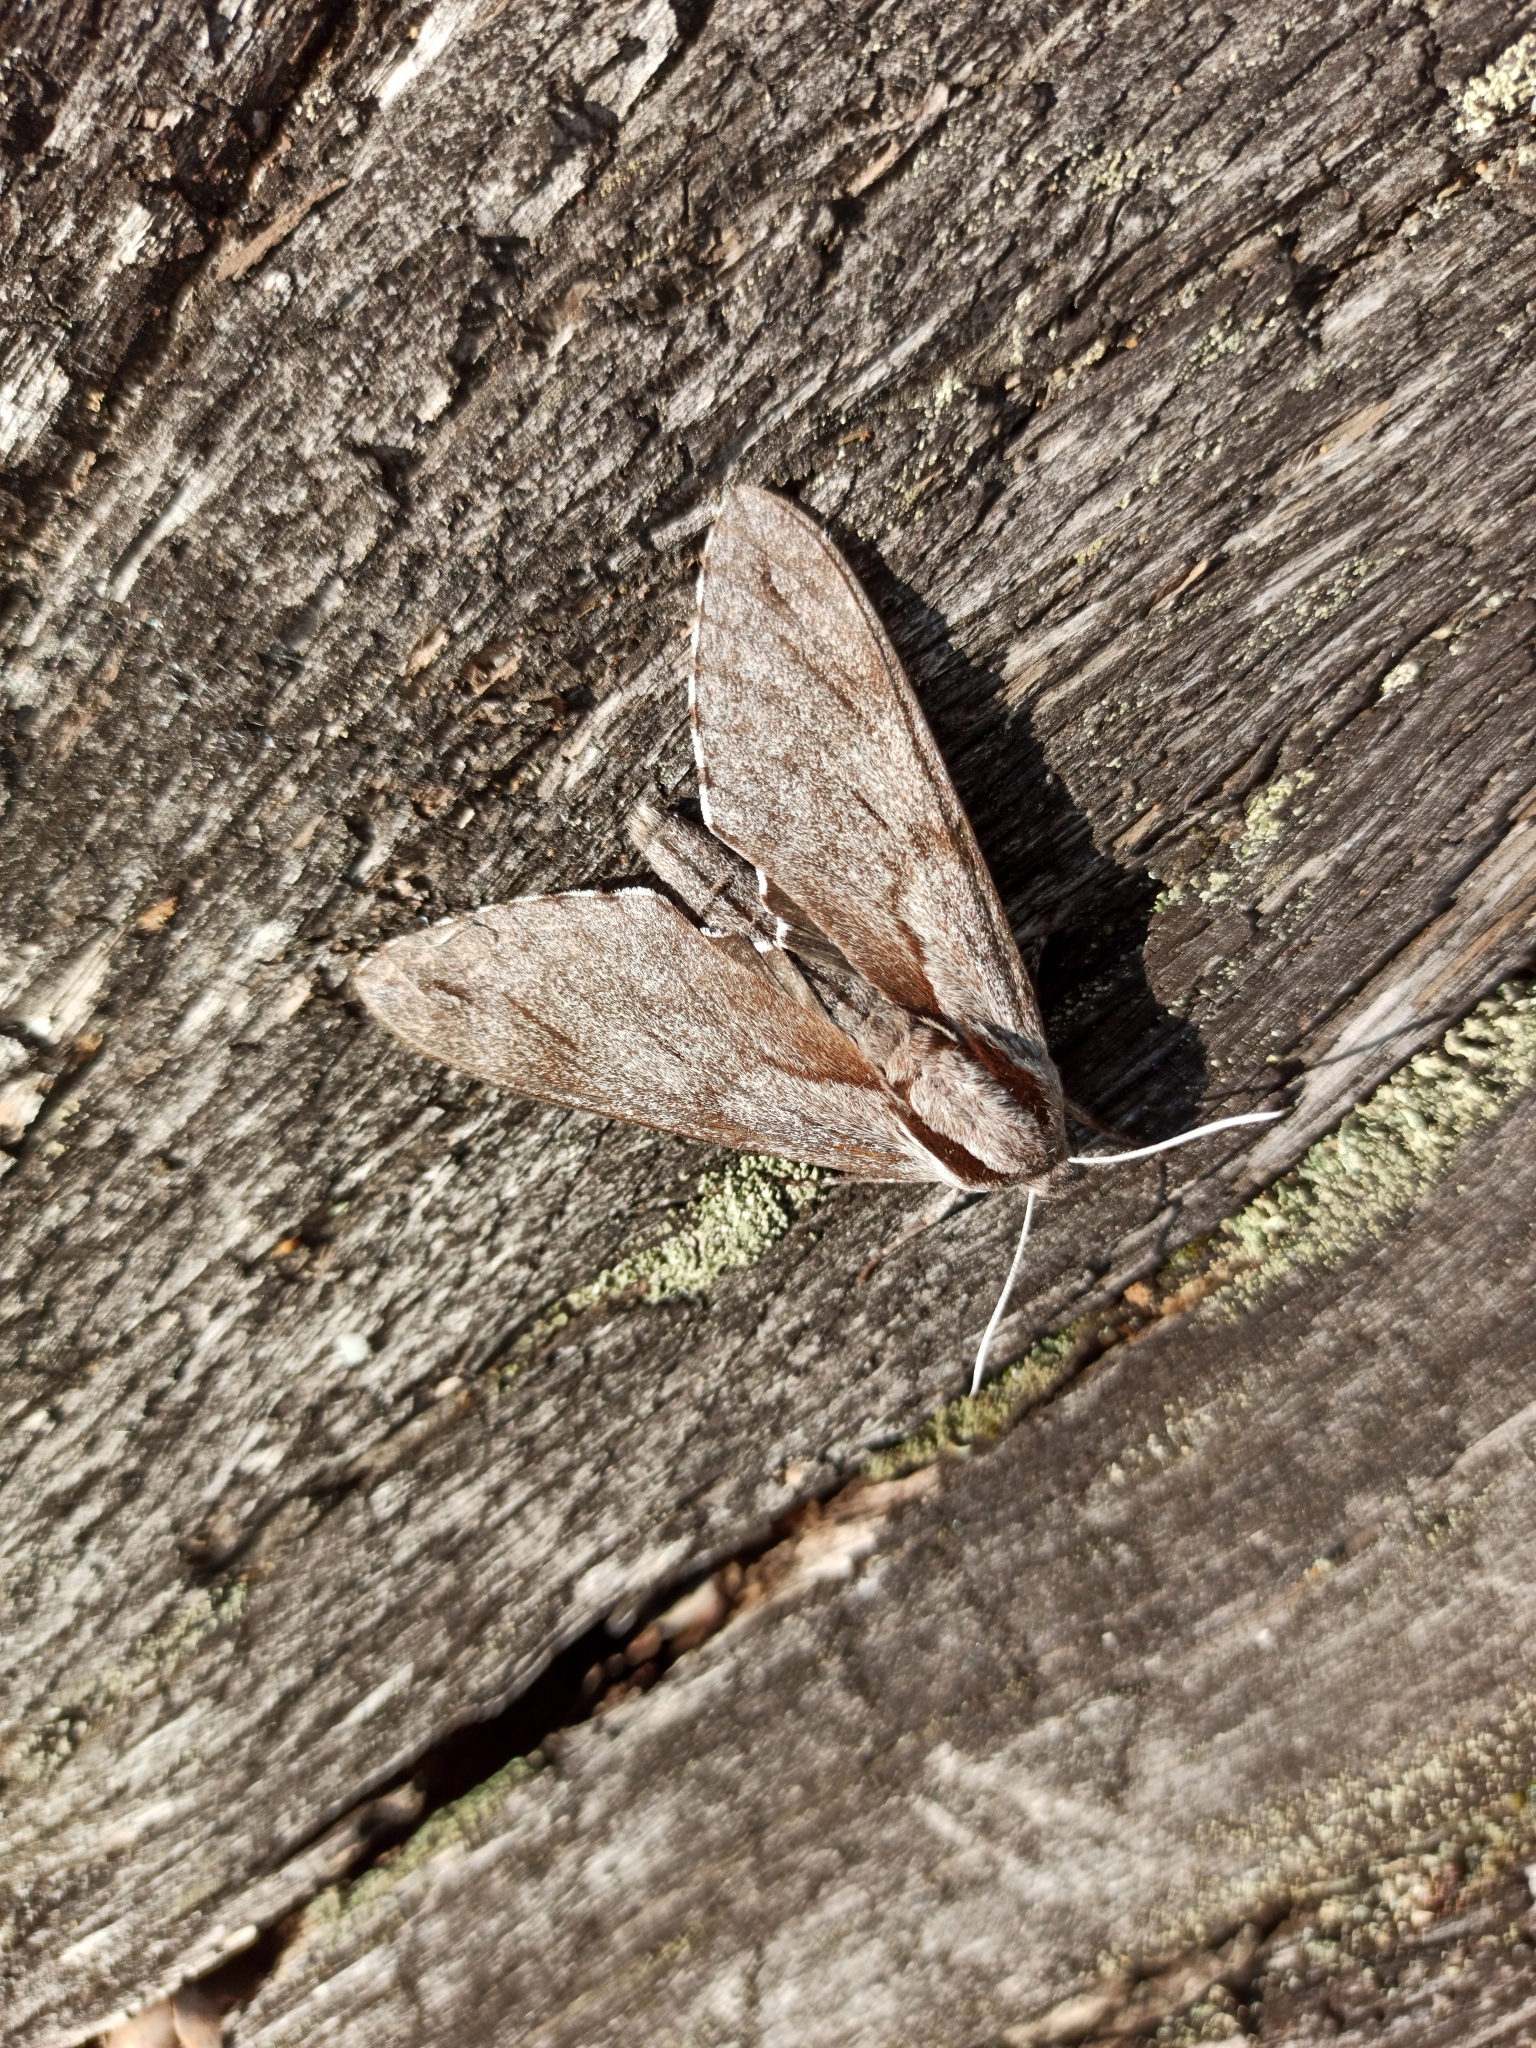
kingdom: Animalia
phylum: Arthropoda
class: Insecta
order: Lepidoptera
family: Sphingidae
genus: Sphinx
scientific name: Sphinx pinastri
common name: Pine hawk-moth
